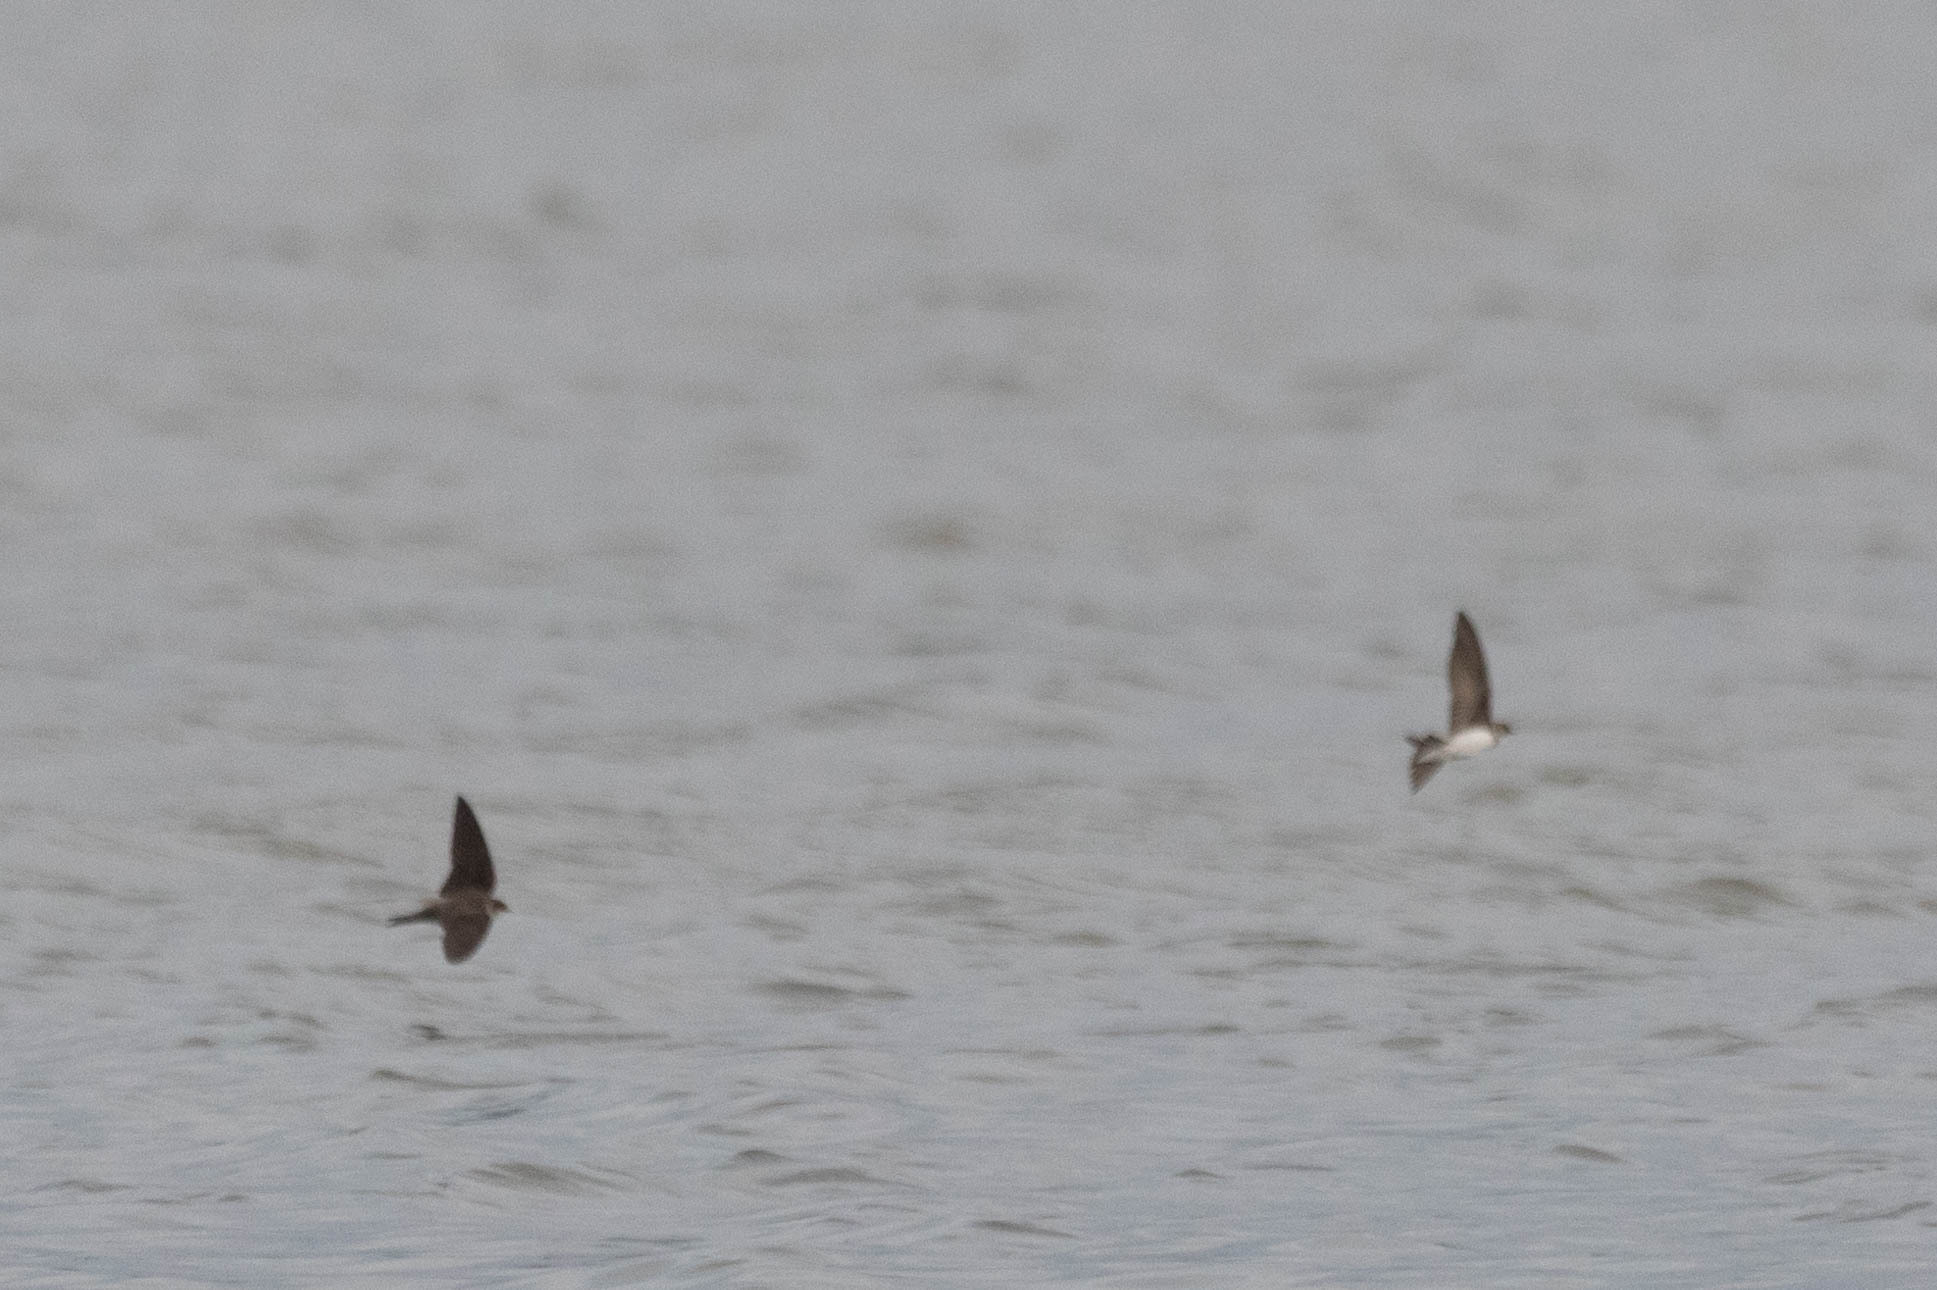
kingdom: Animalia
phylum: Chordata
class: Aves
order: Passeriformes
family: Hirundinidae
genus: Riparia
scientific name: Riparia riparia
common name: Sand martin
